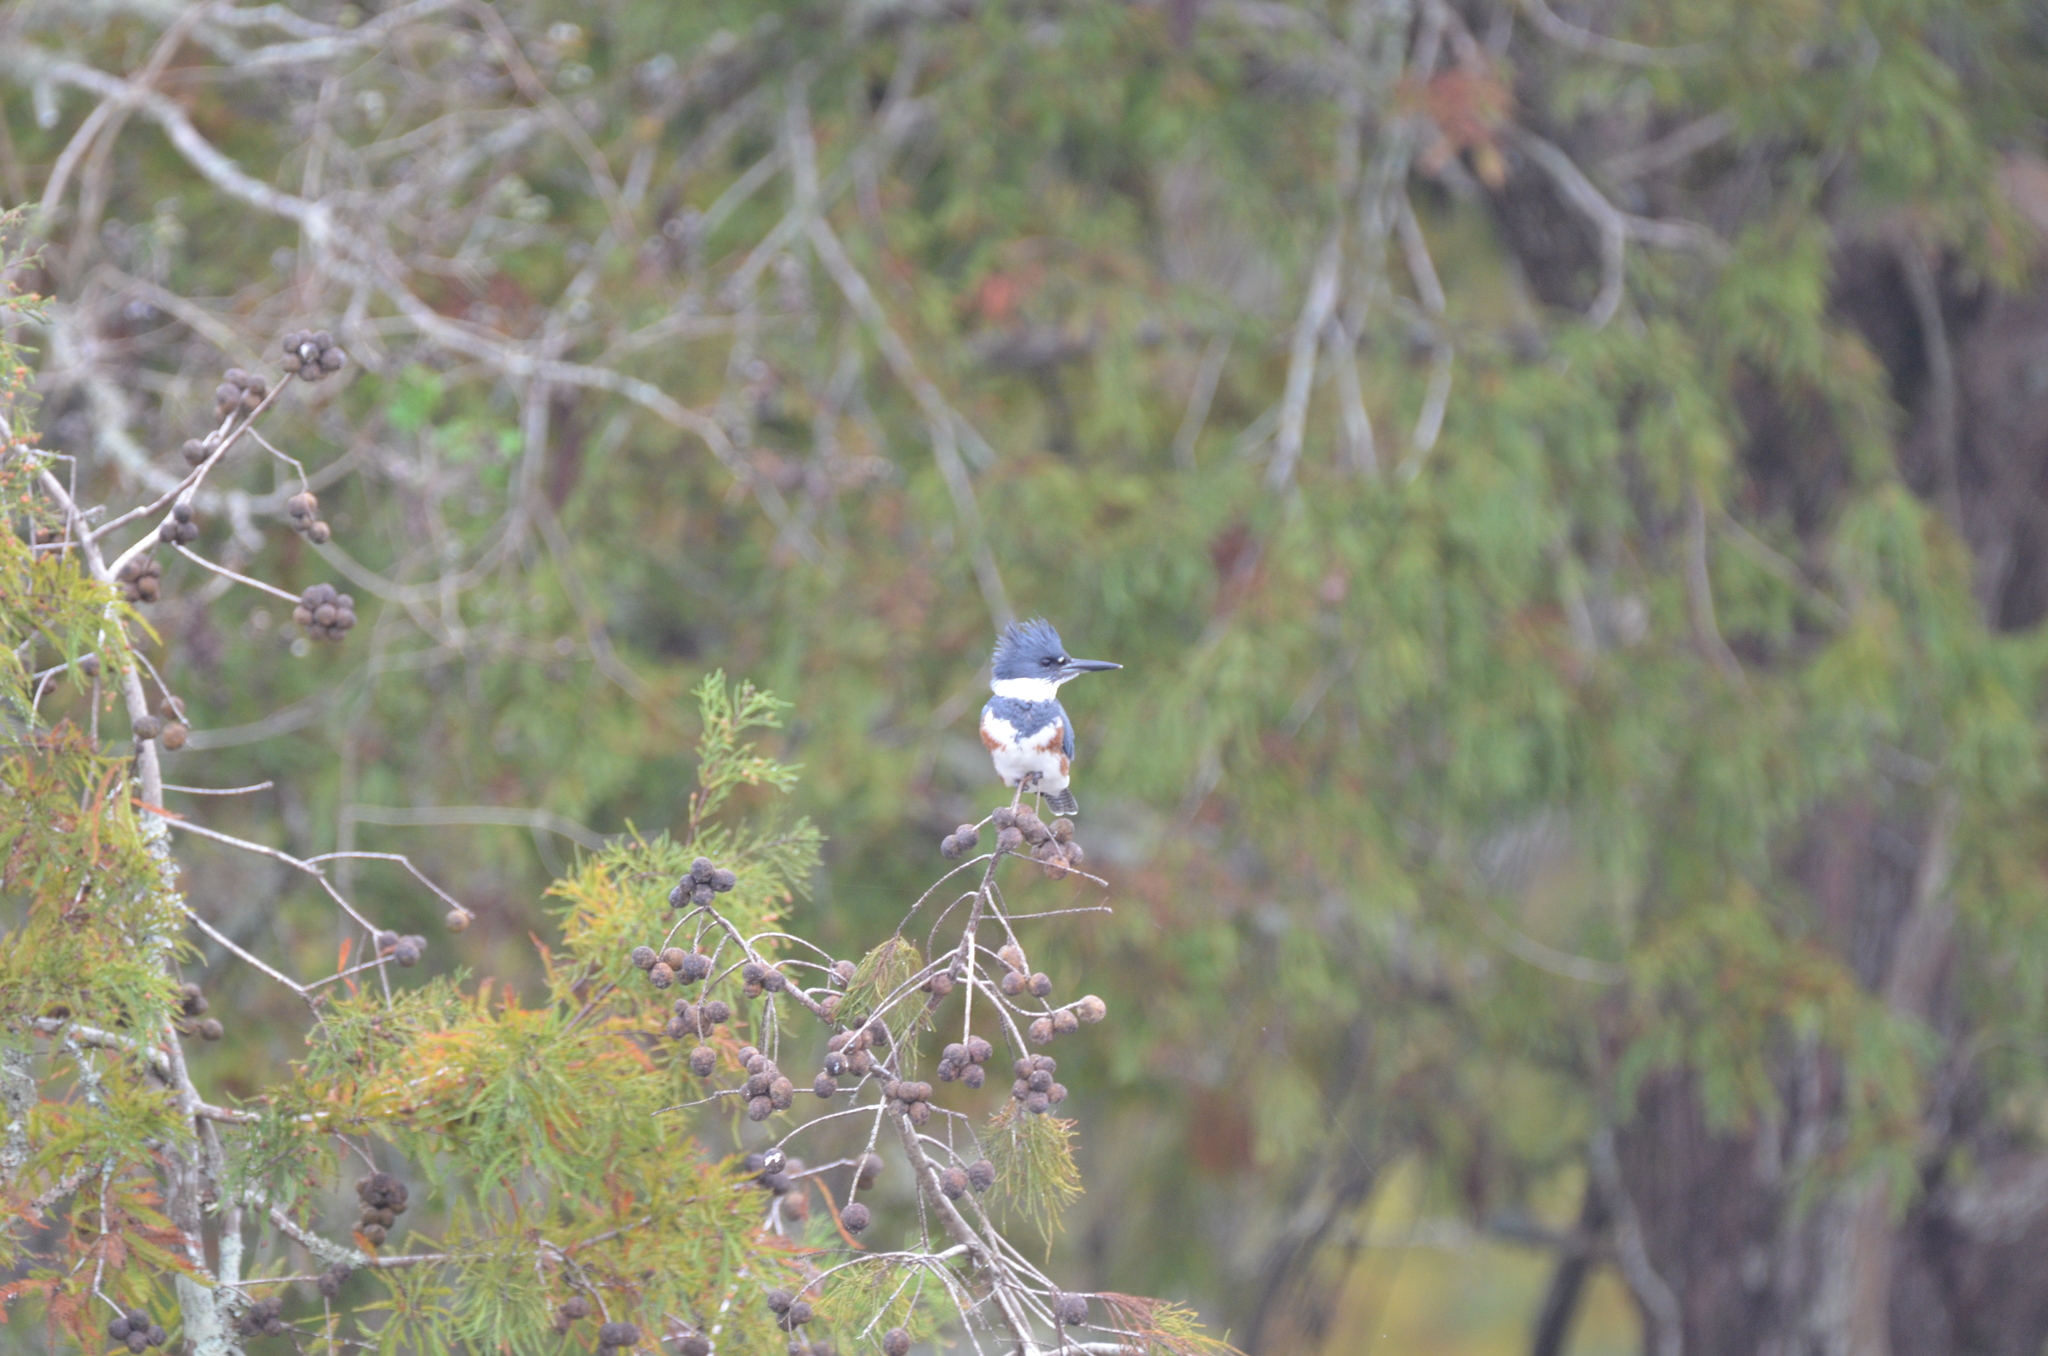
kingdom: Animalia
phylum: Chordata
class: Aves
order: Coraciiformes
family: Alcedinidae
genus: Megaceryle
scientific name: Megaceryle alcyon
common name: Belted kingfisher
